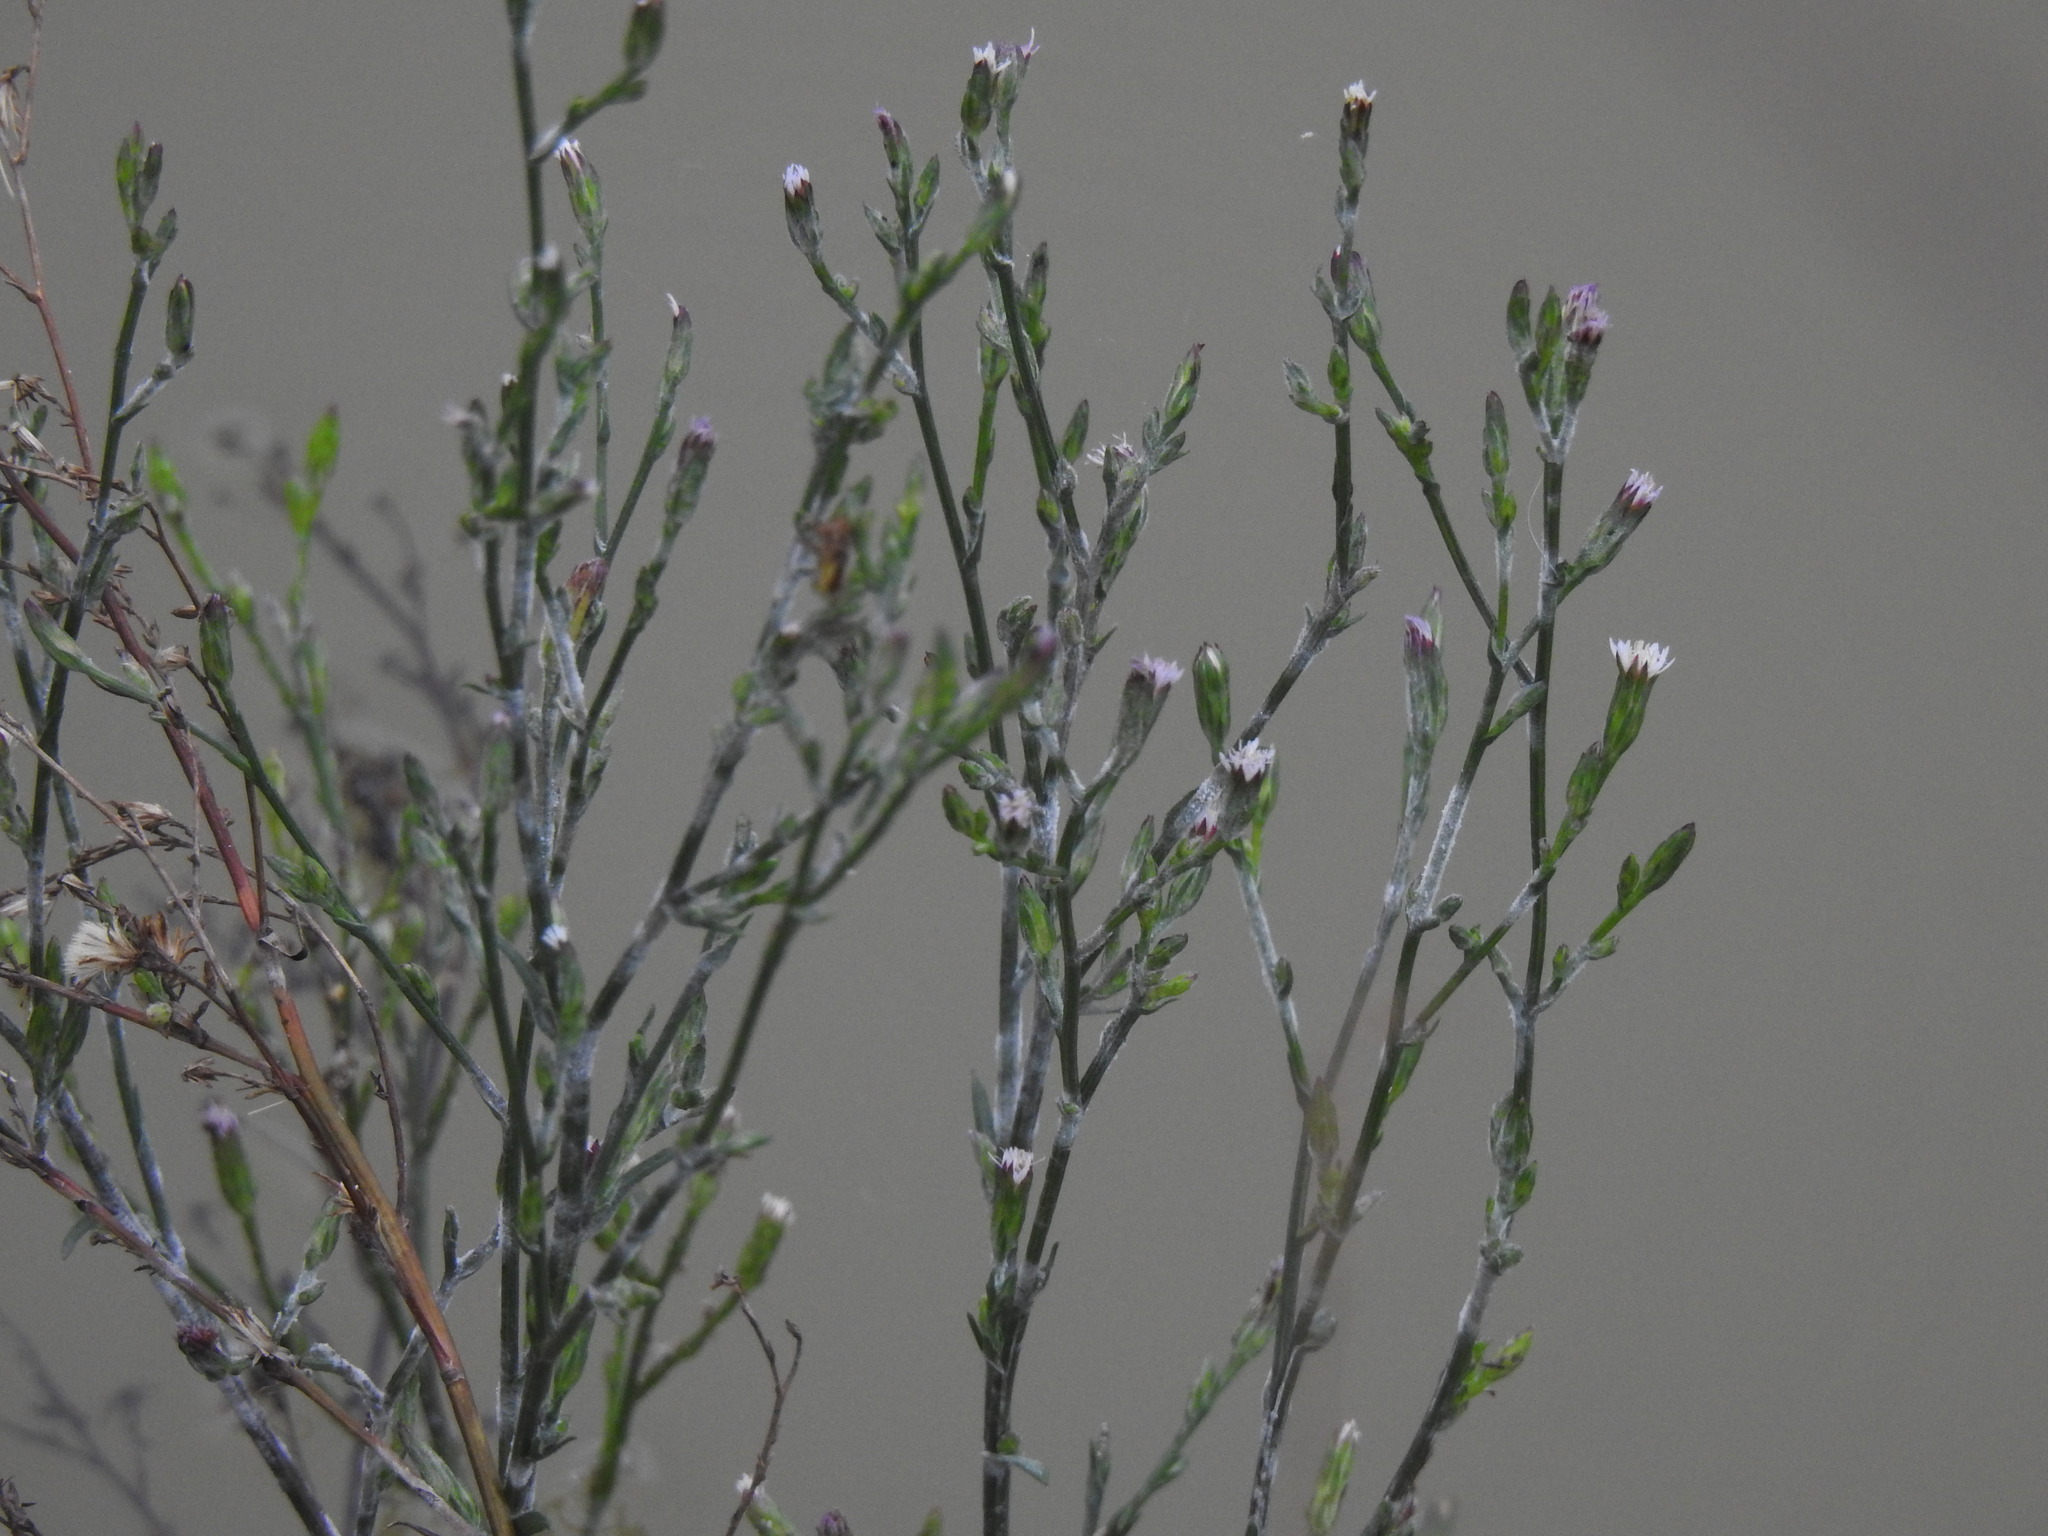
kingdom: Plantae
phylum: Tracheophyta
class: Magnoliopsida
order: Asterales
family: Asteraceae
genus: Symphyotrichum
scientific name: Symphyotrichum squamatum
